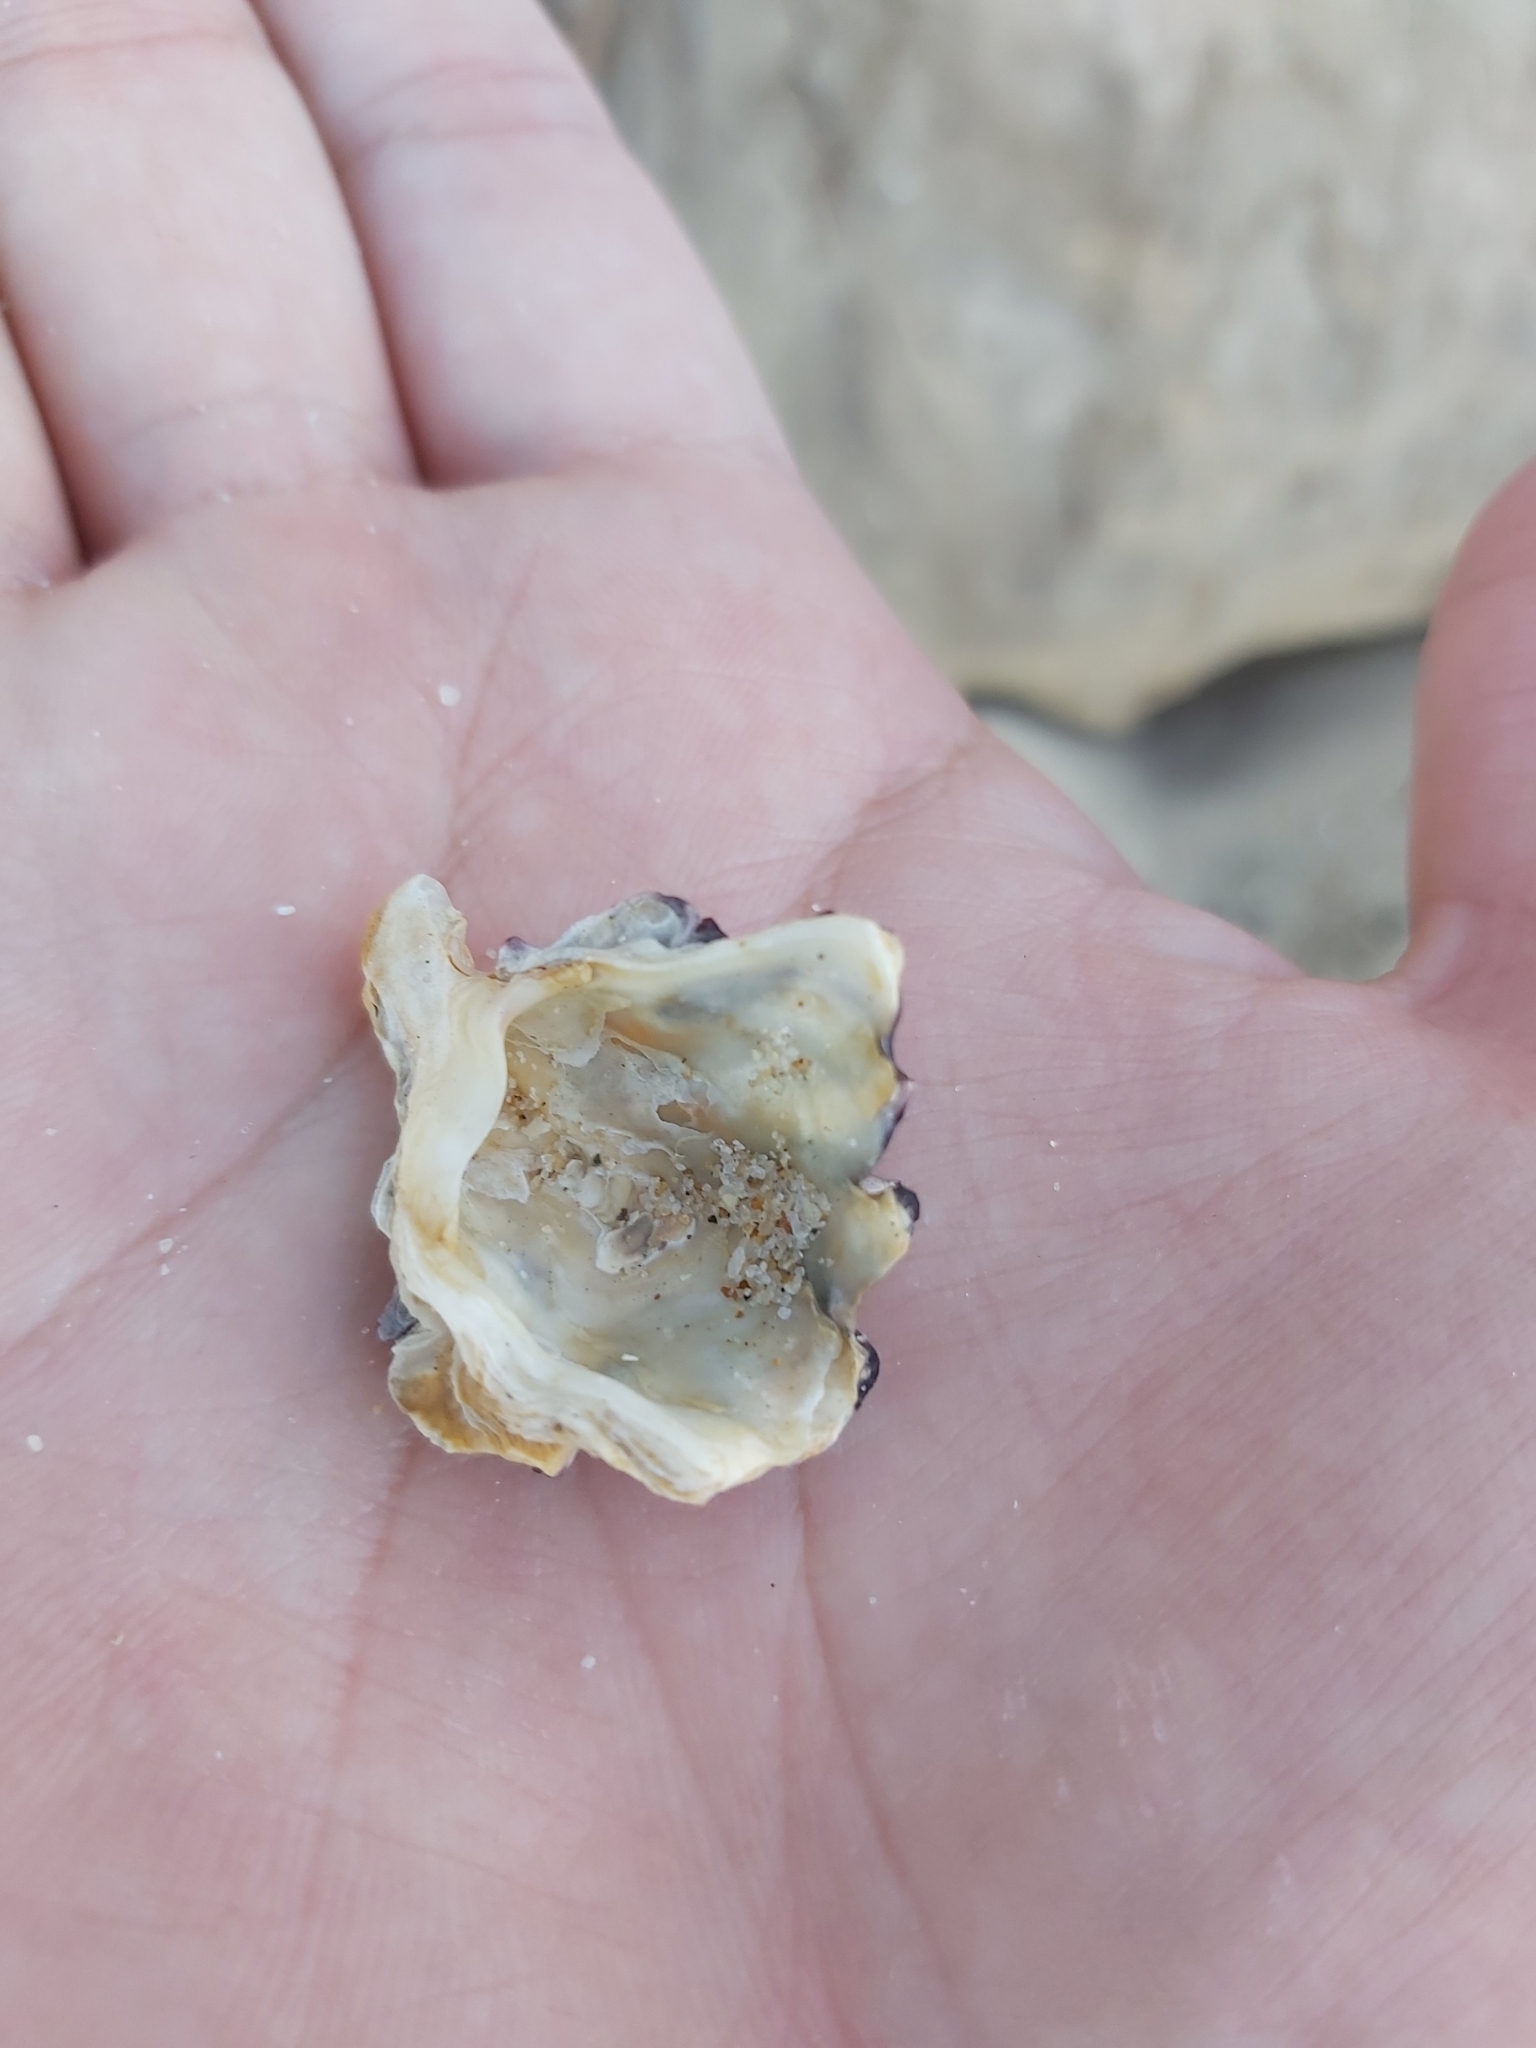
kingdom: Animalia
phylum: Mollusca
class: Bivalvia
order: Ostreida
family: Ostreidae
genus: Saccostrea
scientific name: Saccostrea glomerata
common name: Sydney cupped oyster
